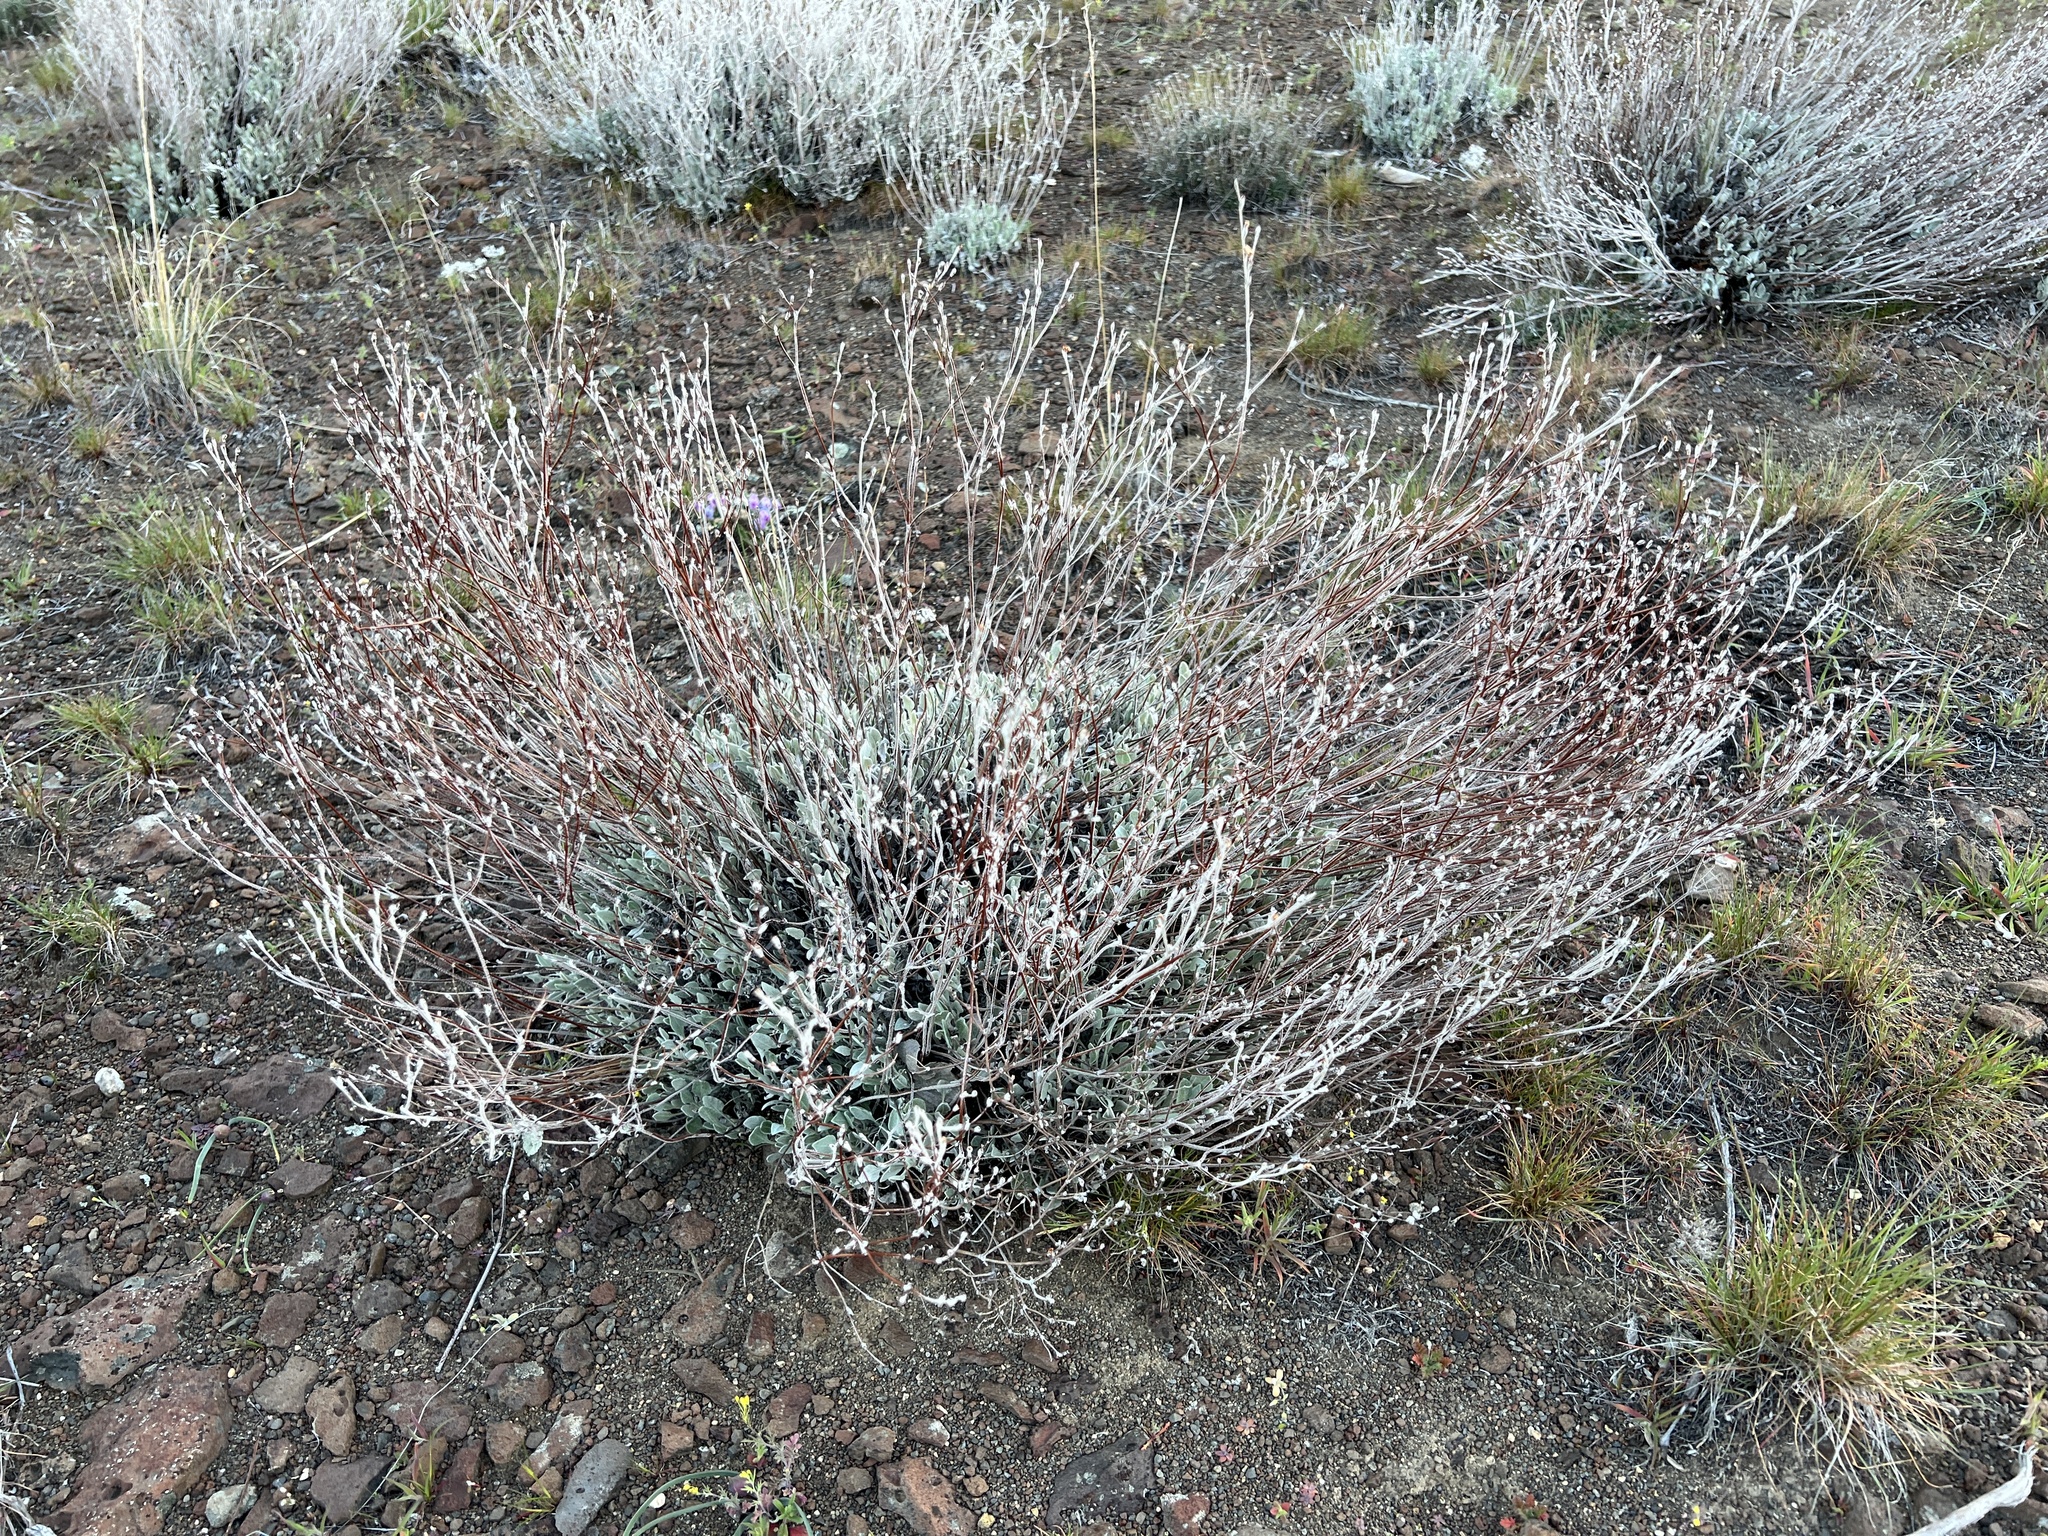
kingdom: Plantae
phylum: Tracheophyta
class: Magnoliopsida
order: Caryophyllales
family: Polygonaceae
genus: Eriogonum
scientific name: Eriogonum niveum
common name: Snow wild buckwheat
